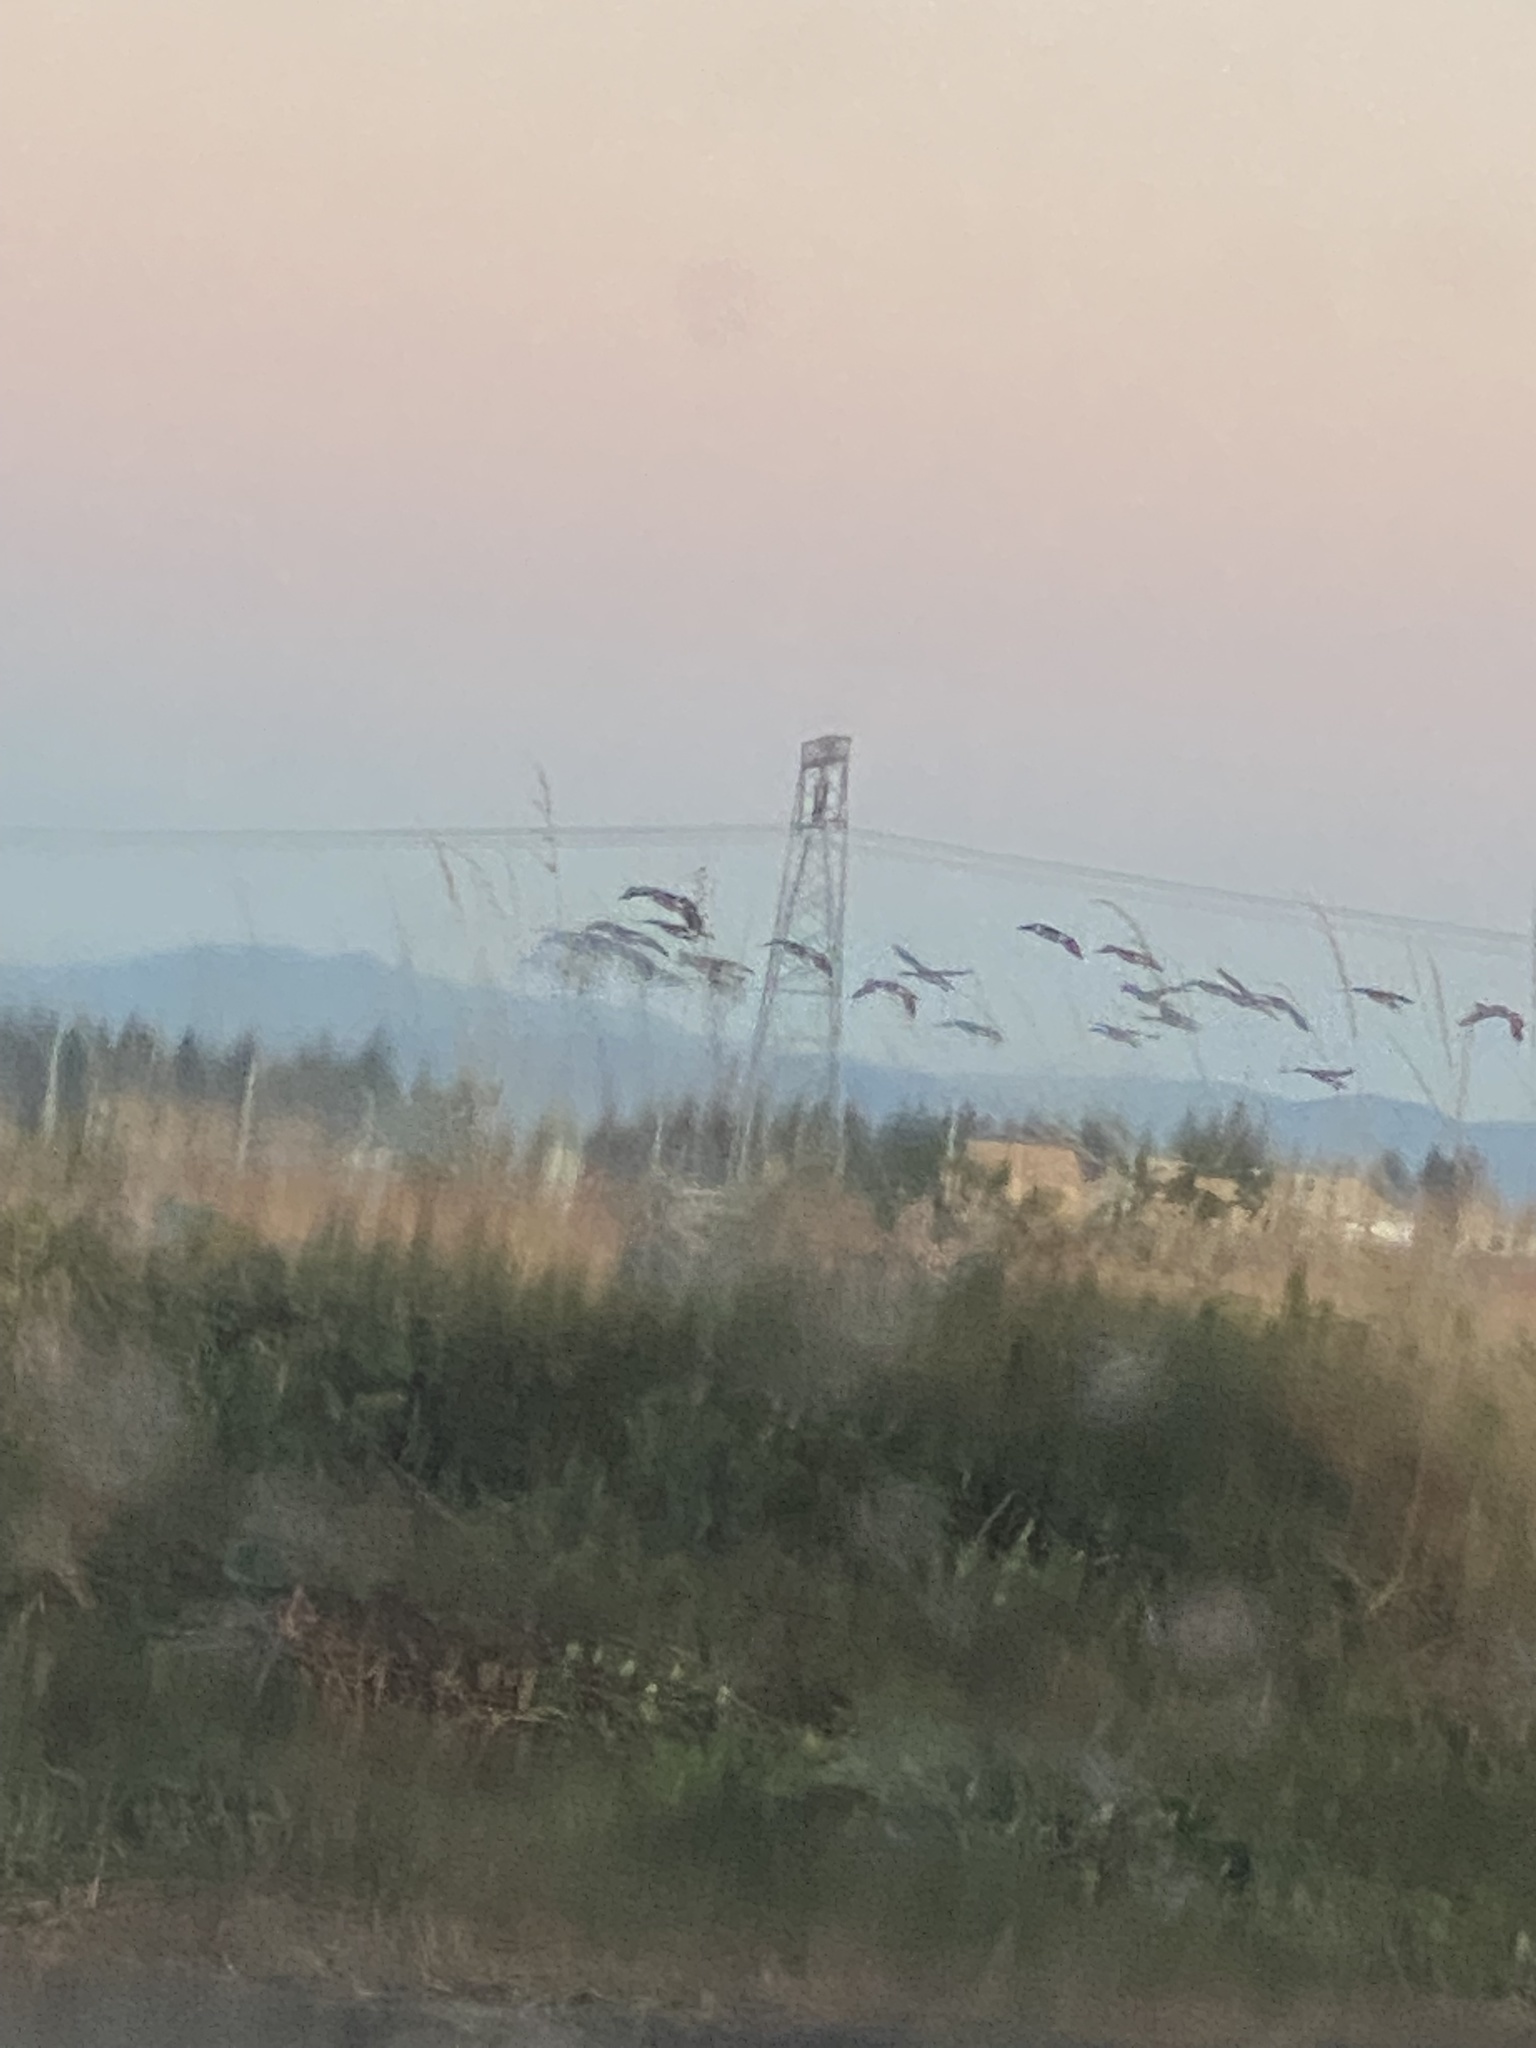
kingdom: Animalia
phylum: Chordata
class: Aves
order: Anseriformes
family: Anatidae
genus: Branta
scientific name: Branta canadensis
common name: Canada goose
